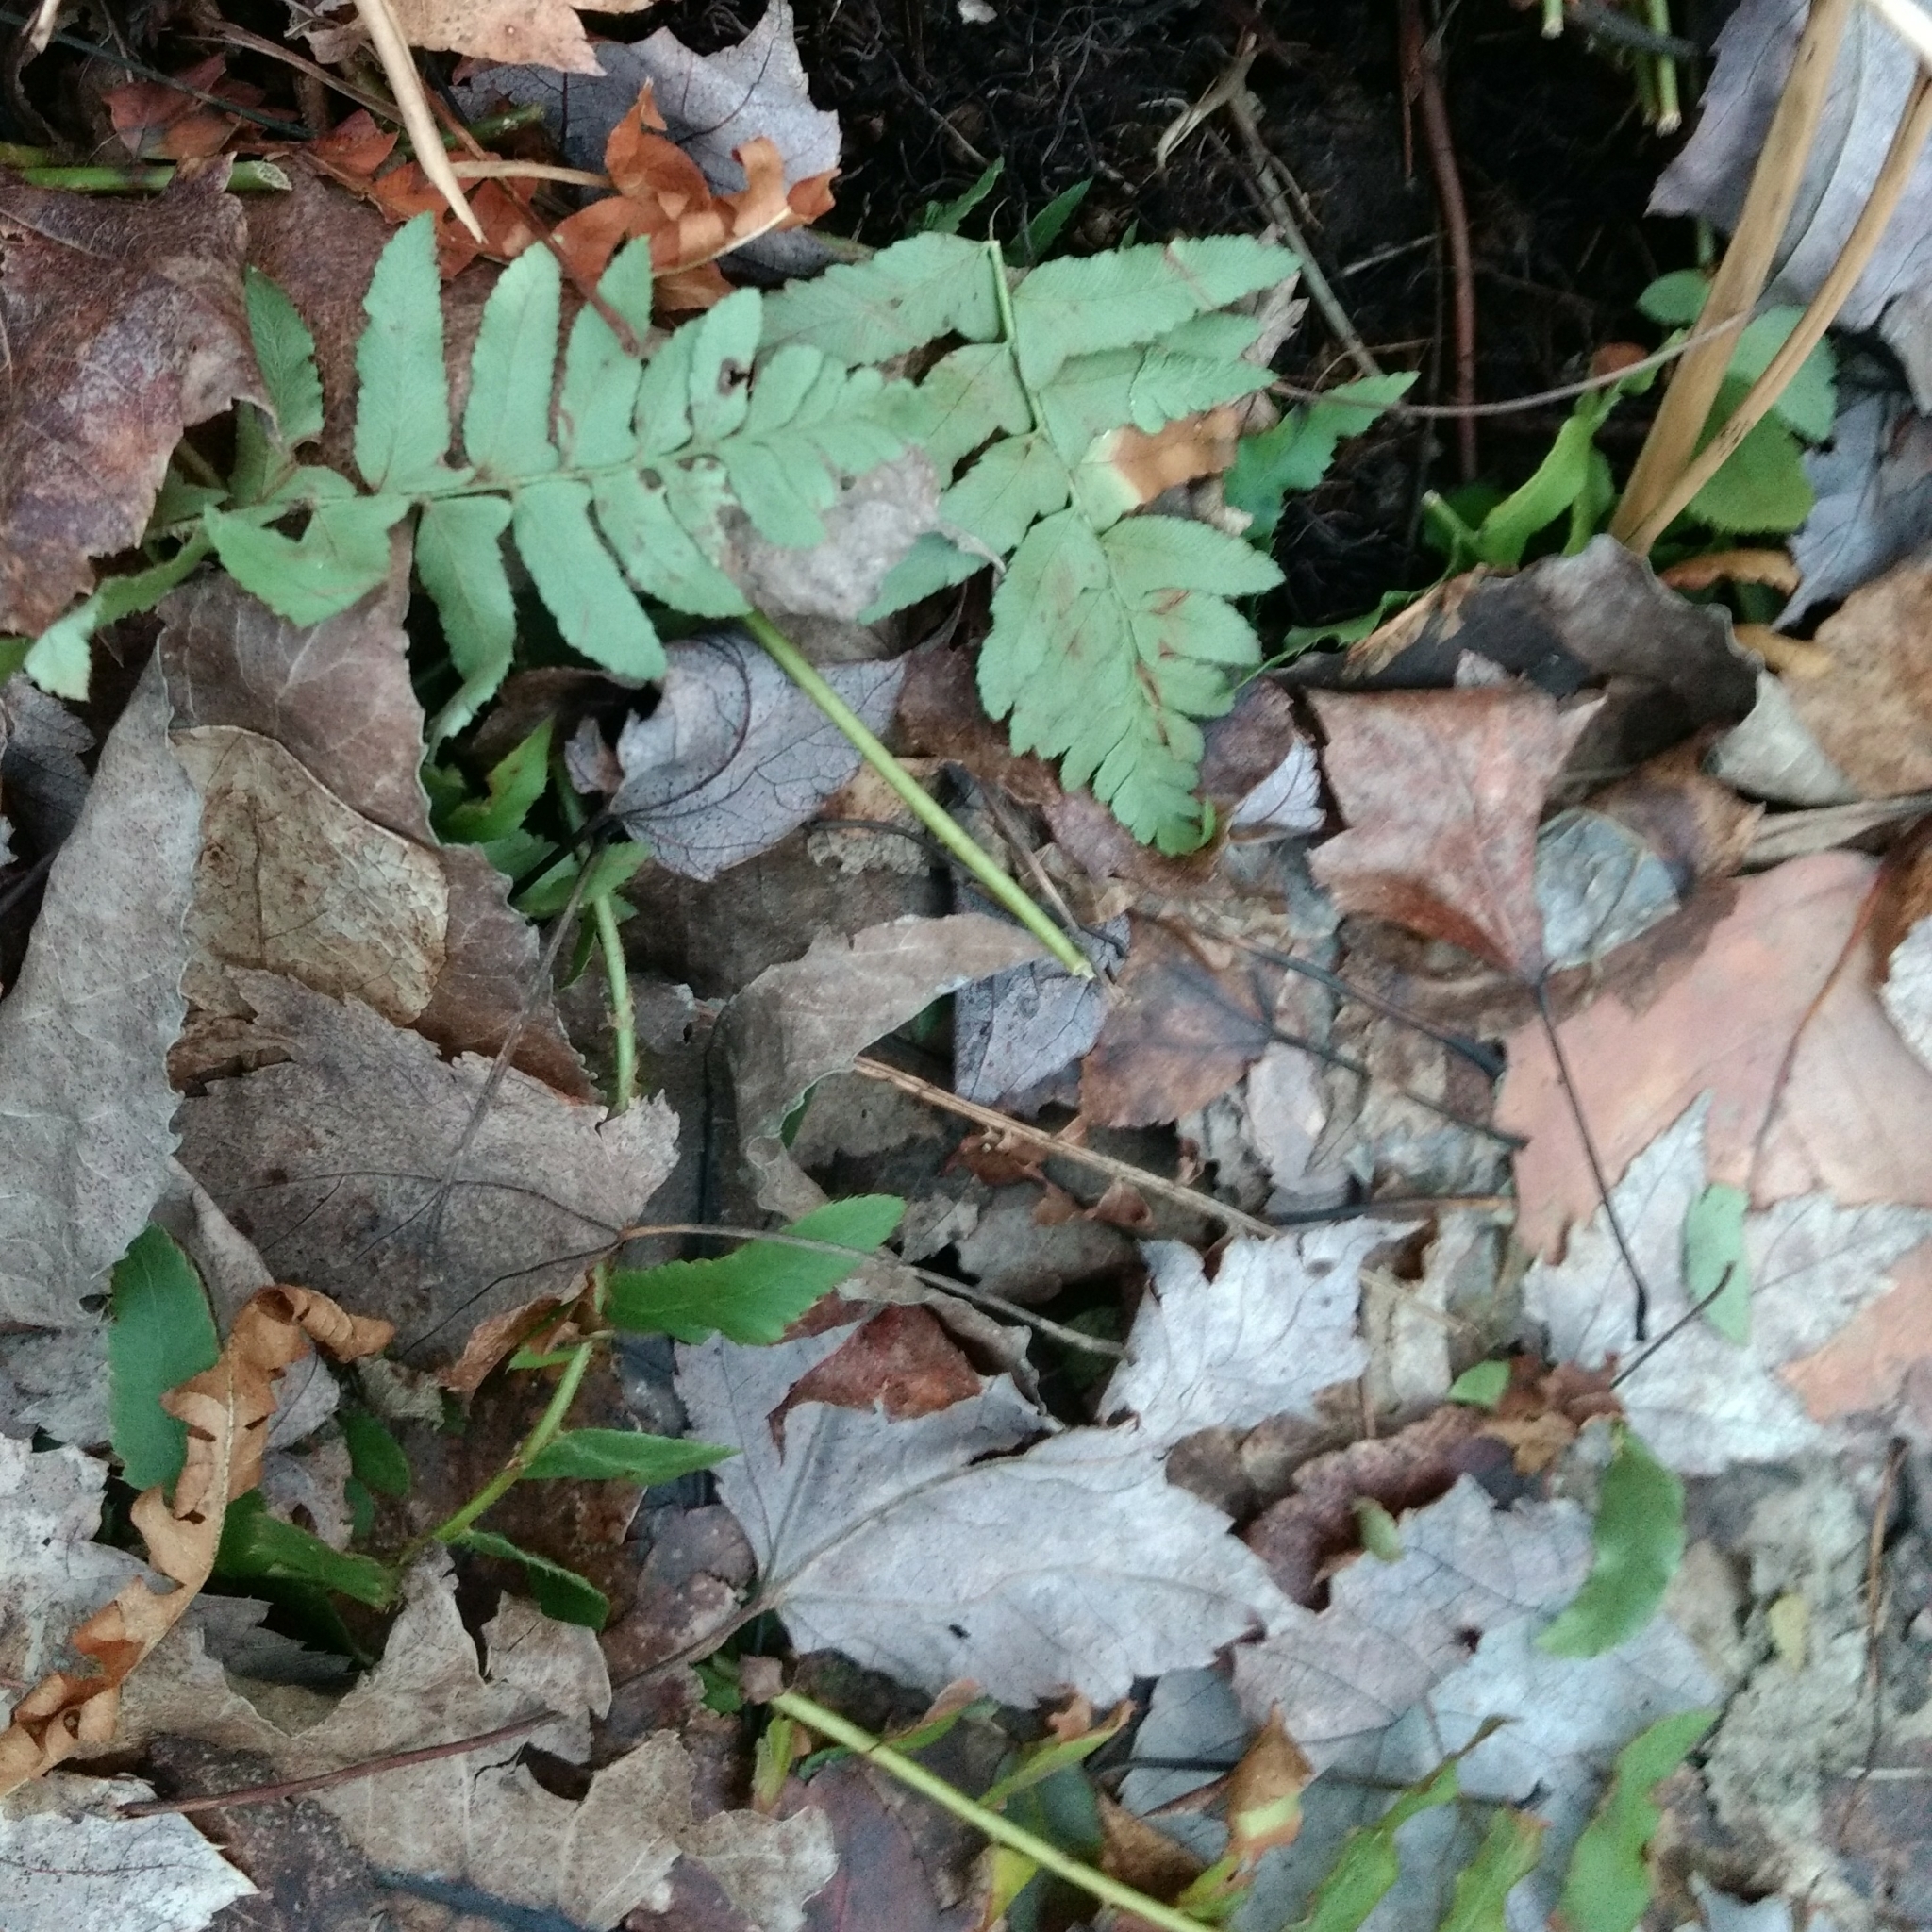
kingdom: Plantae
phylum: Tracheophyta
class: Polypodiopsida
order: Polypodiales
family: Dryopteridaceae
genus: Polystichum
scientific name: Polystichum acrostichoides
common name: Christmas fern
